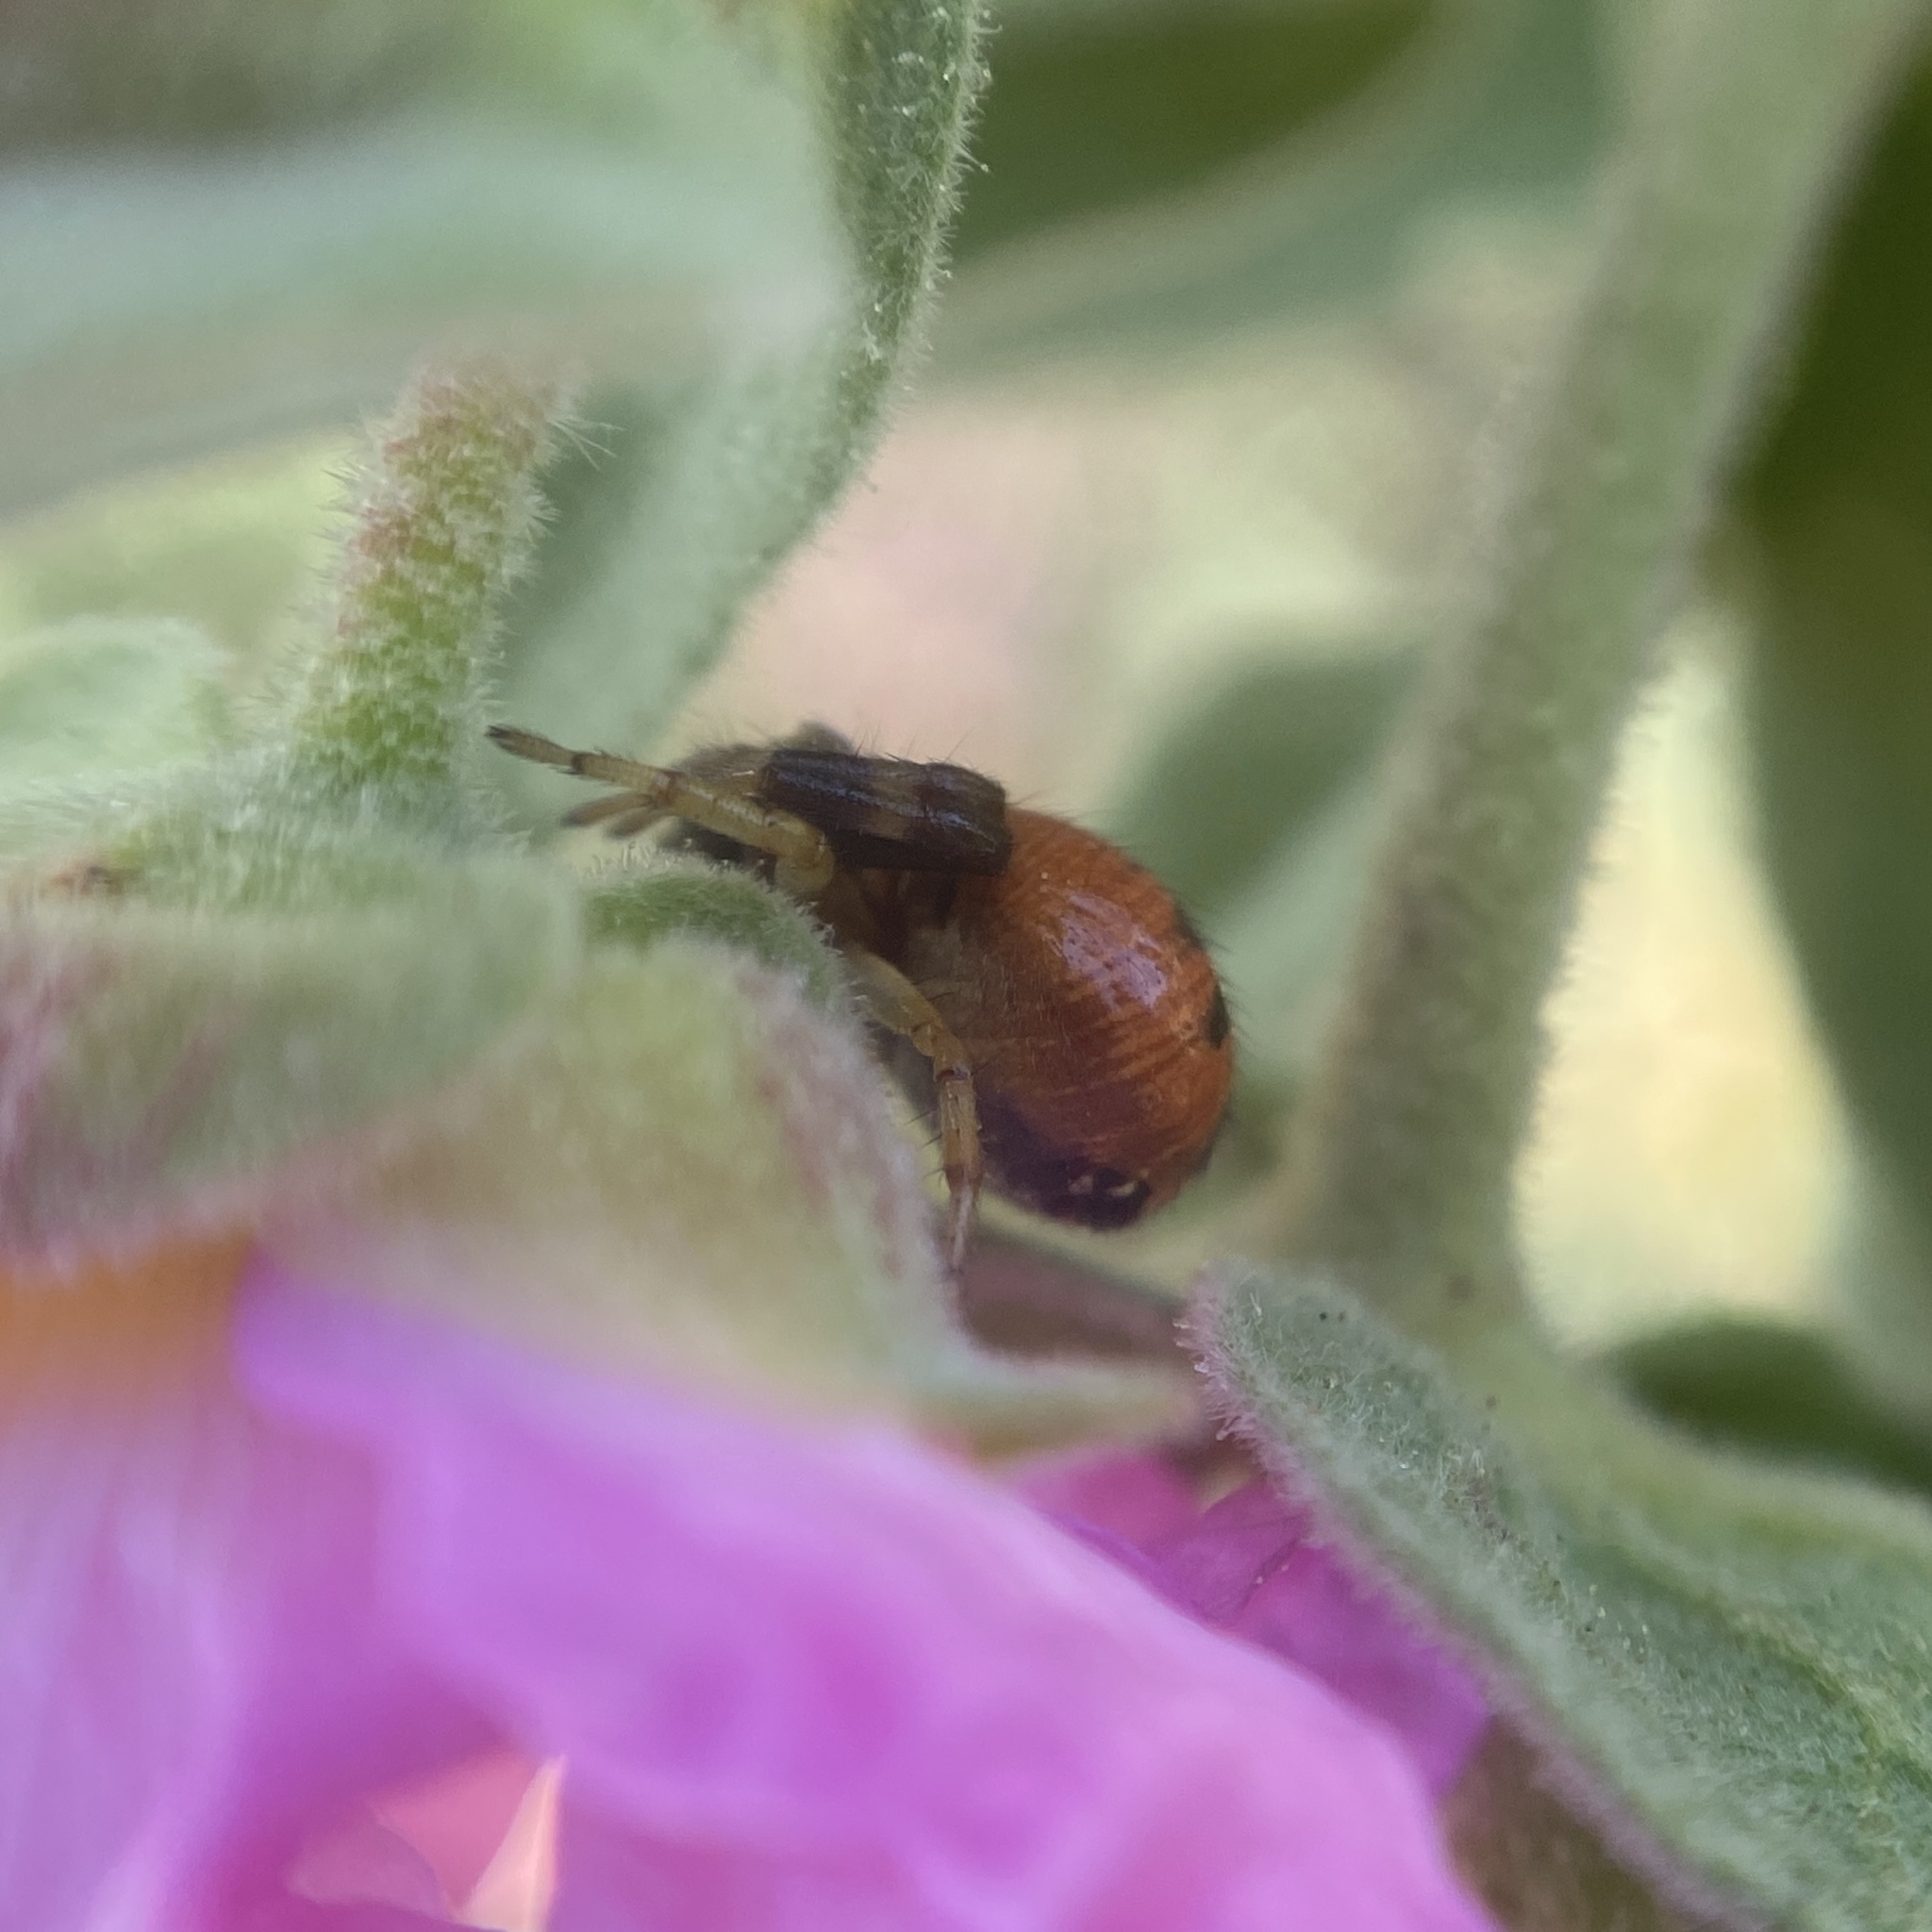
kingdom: Animalia
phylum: Arthropoda
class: Arachnida
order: Araneae
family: Thomisidae
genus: Synema
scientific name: Synema globosum
